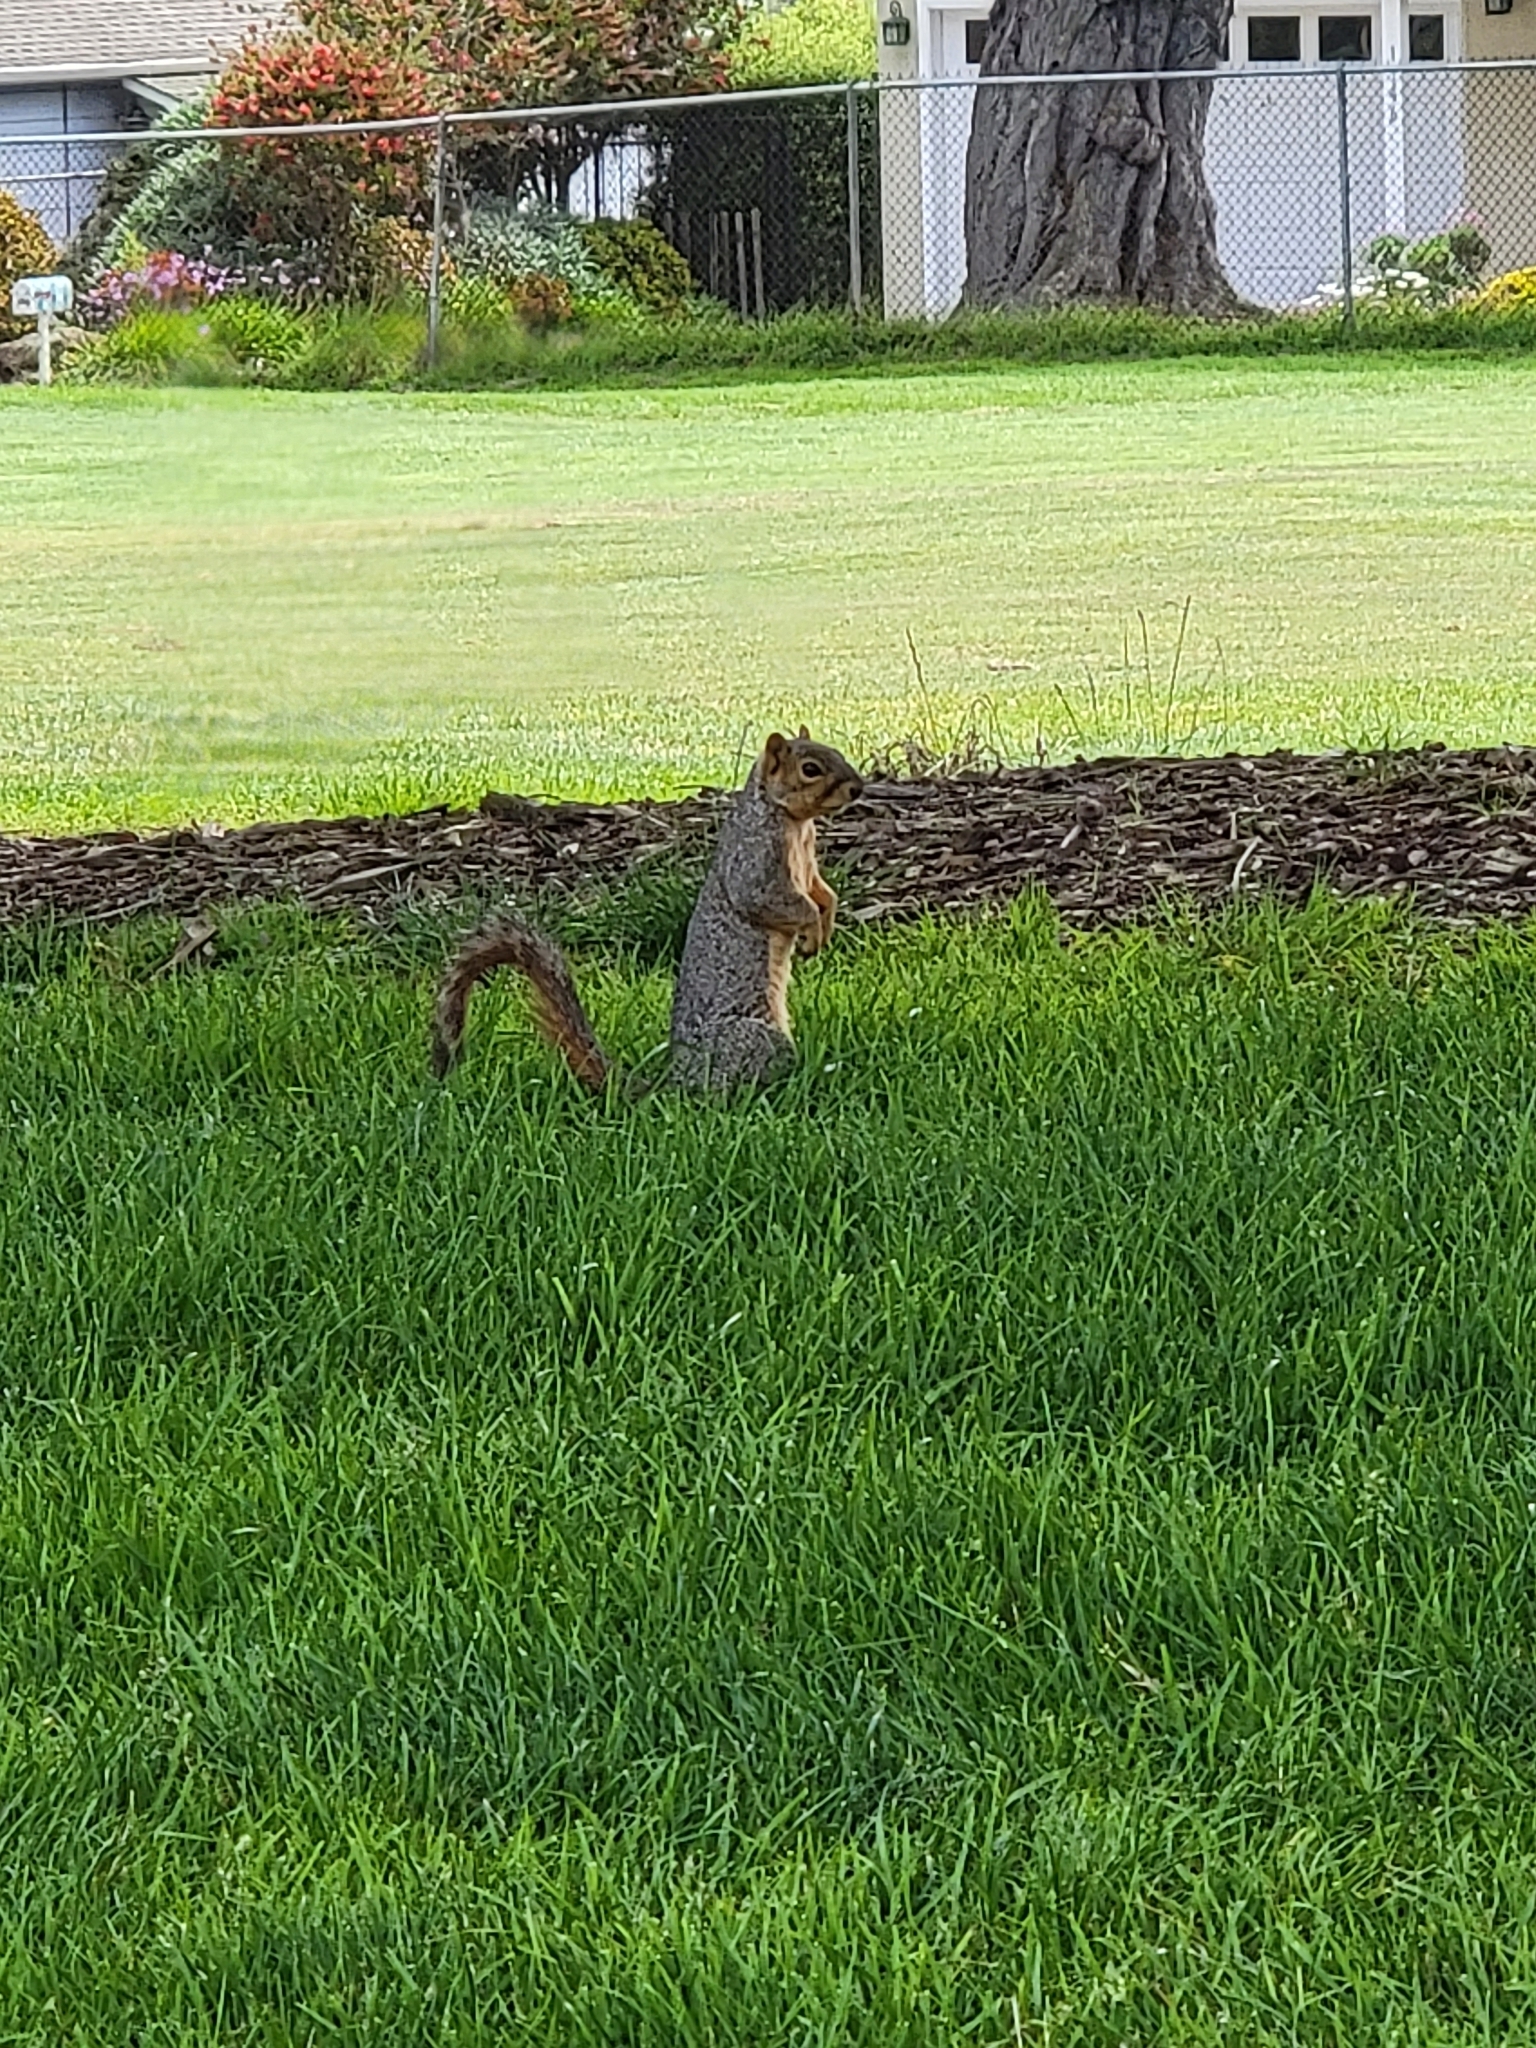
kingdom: Animalia
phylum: Chordata
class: Mammalia
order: Rodentia
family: Sciuridae
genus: Sciurus
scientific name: Sciurus niger
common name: Fox squirrel
